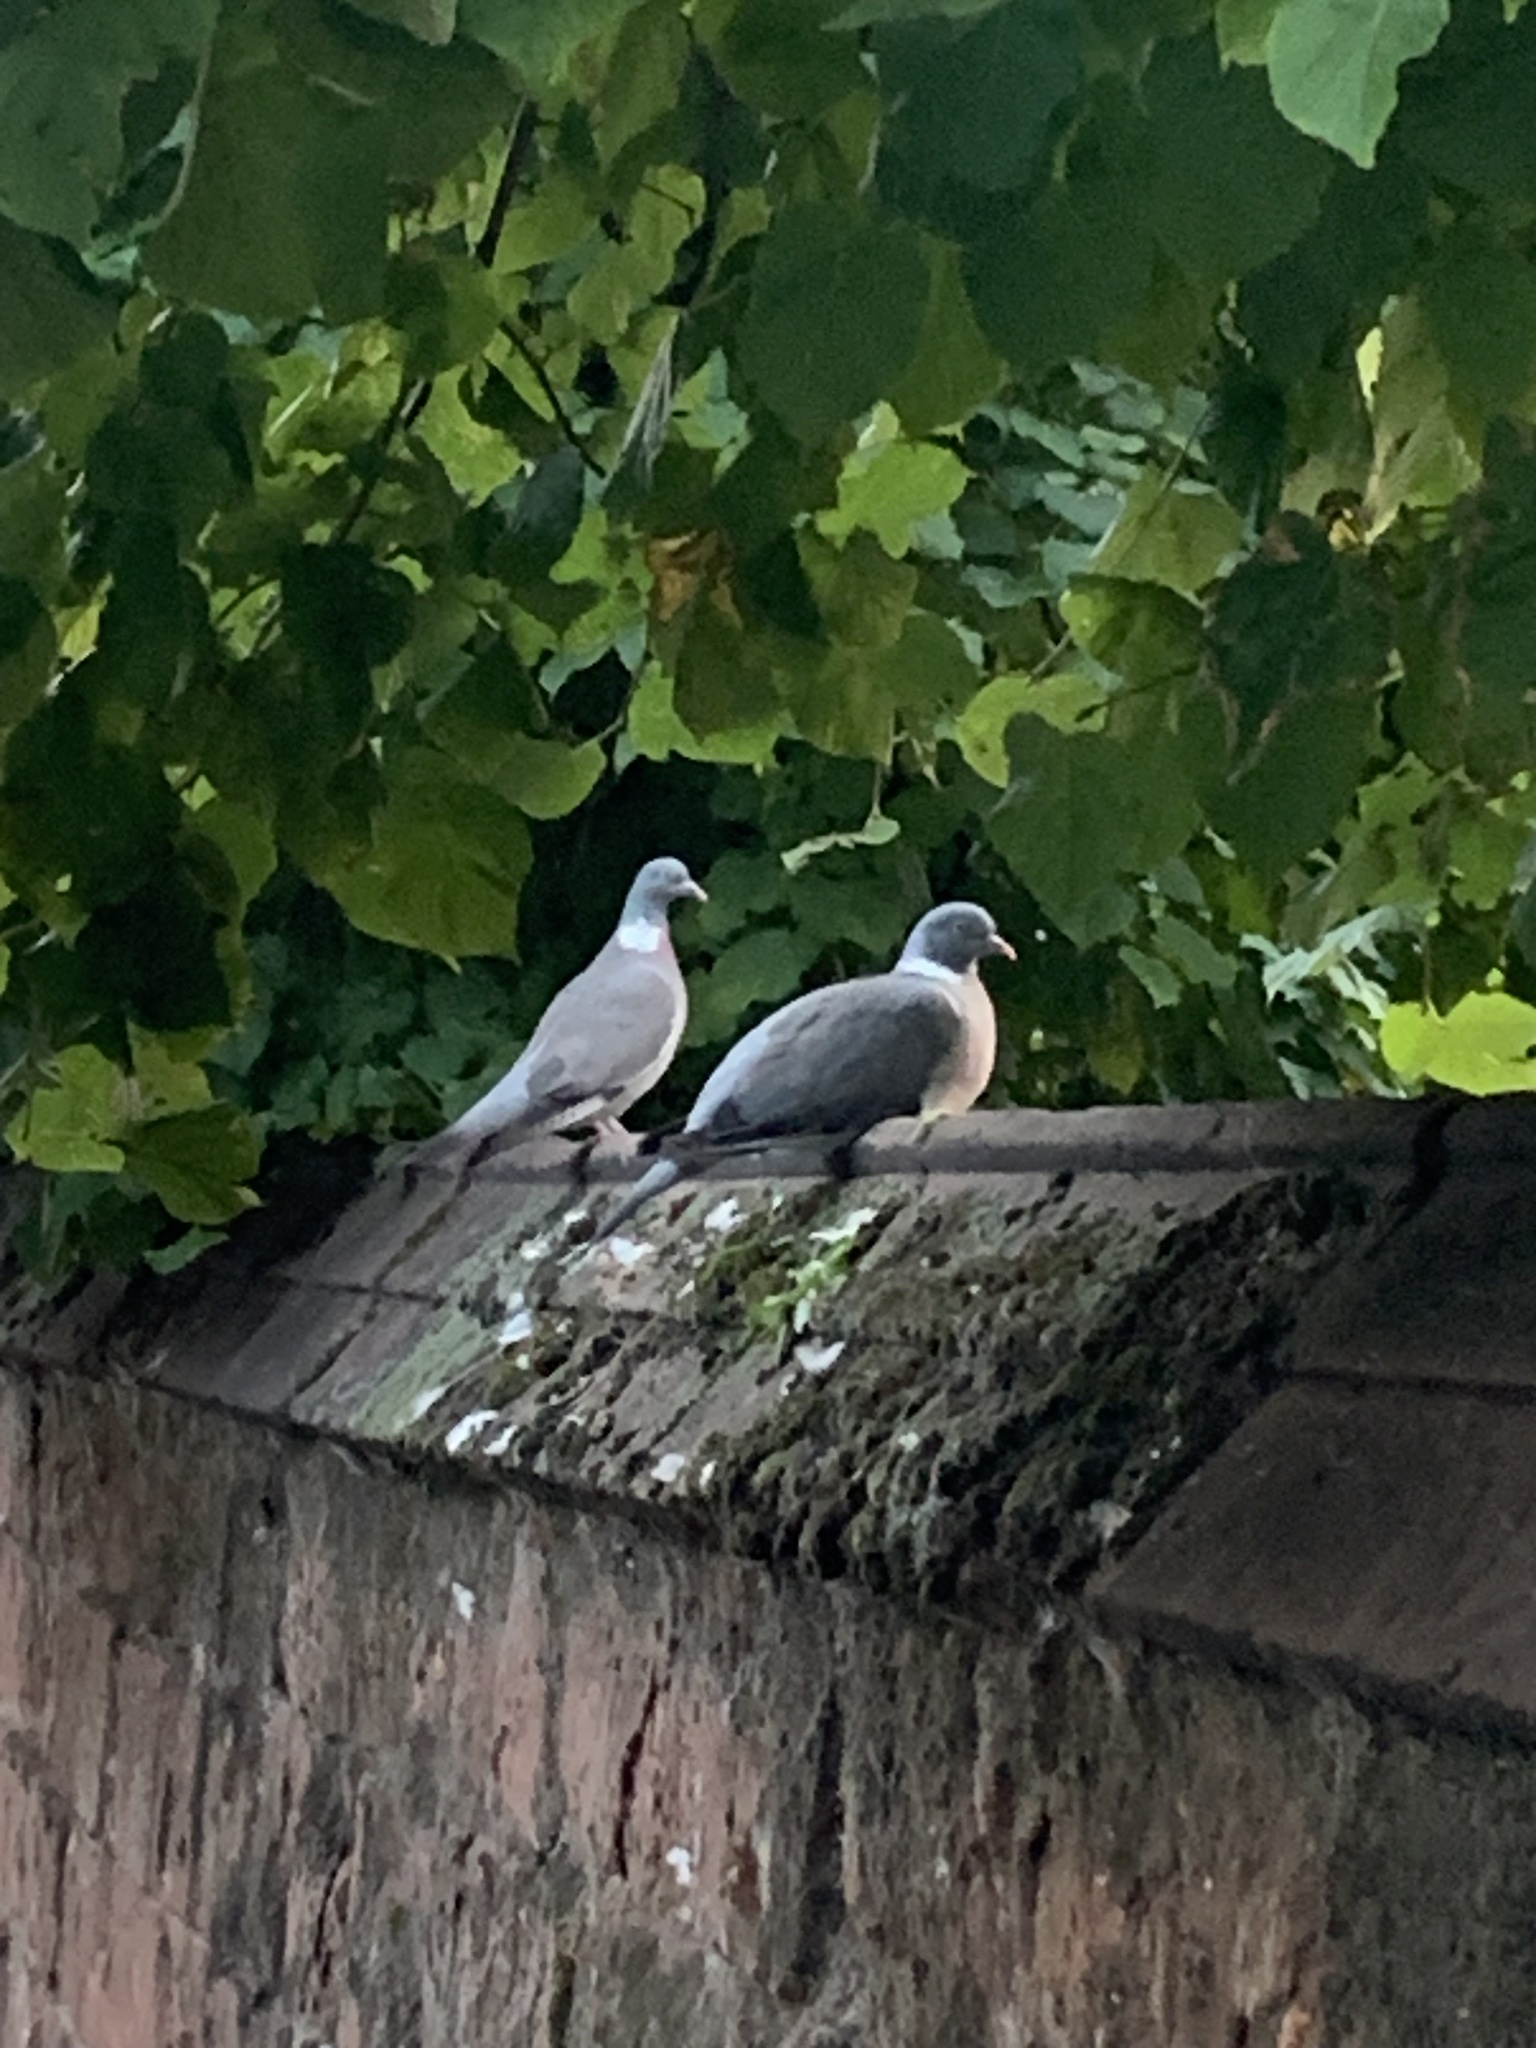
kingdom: Animalia
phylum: Chordata
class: Aves
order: Columbiformes
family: Columbidae
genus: Columba
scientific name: Columba palumbus
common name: Common wood pigeon
